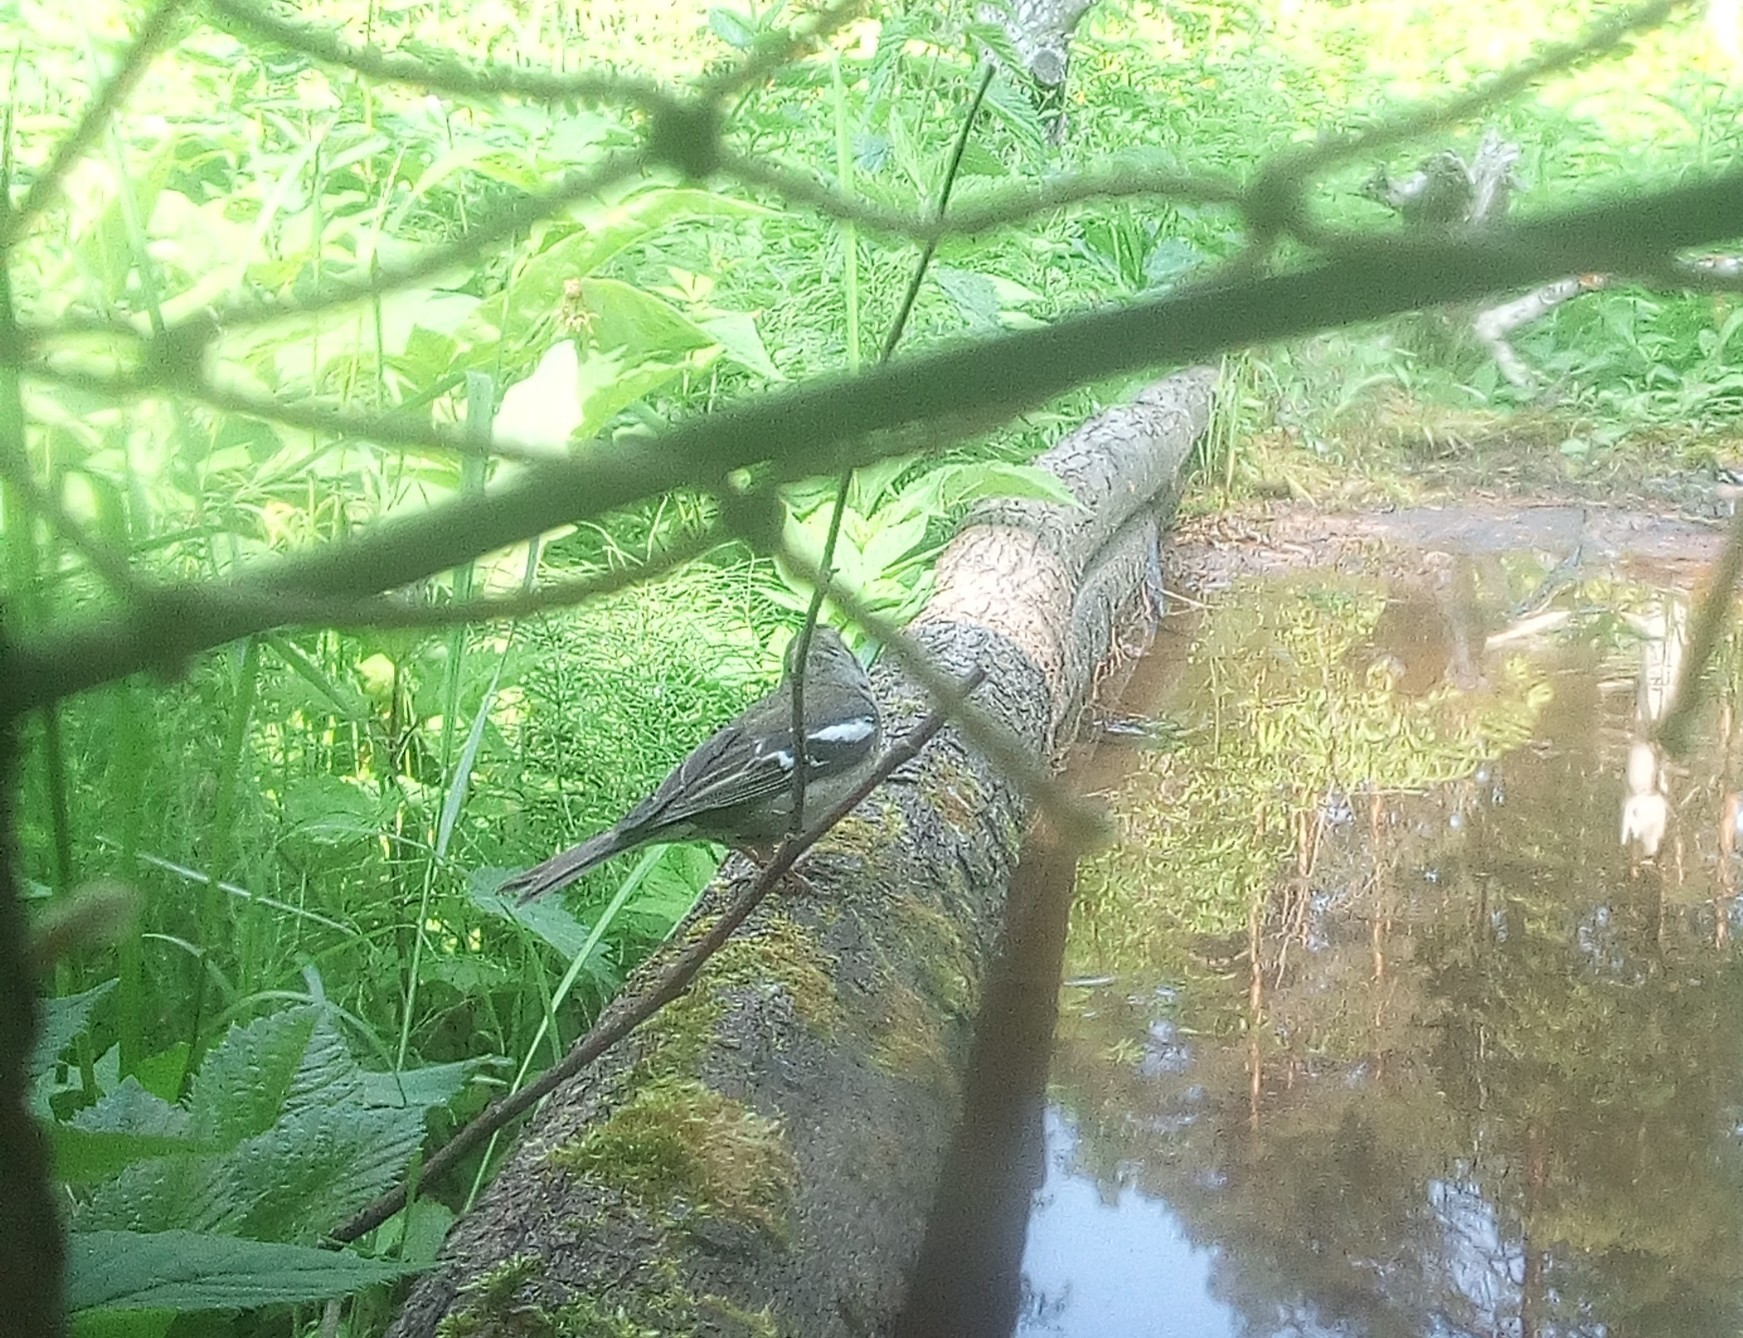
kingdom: Animalia
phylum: Chordata
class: Aves
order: Passeriformes
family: Fringillidae
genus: Fringilla
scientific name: Fringilla coelebs
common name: Common chaffinch
